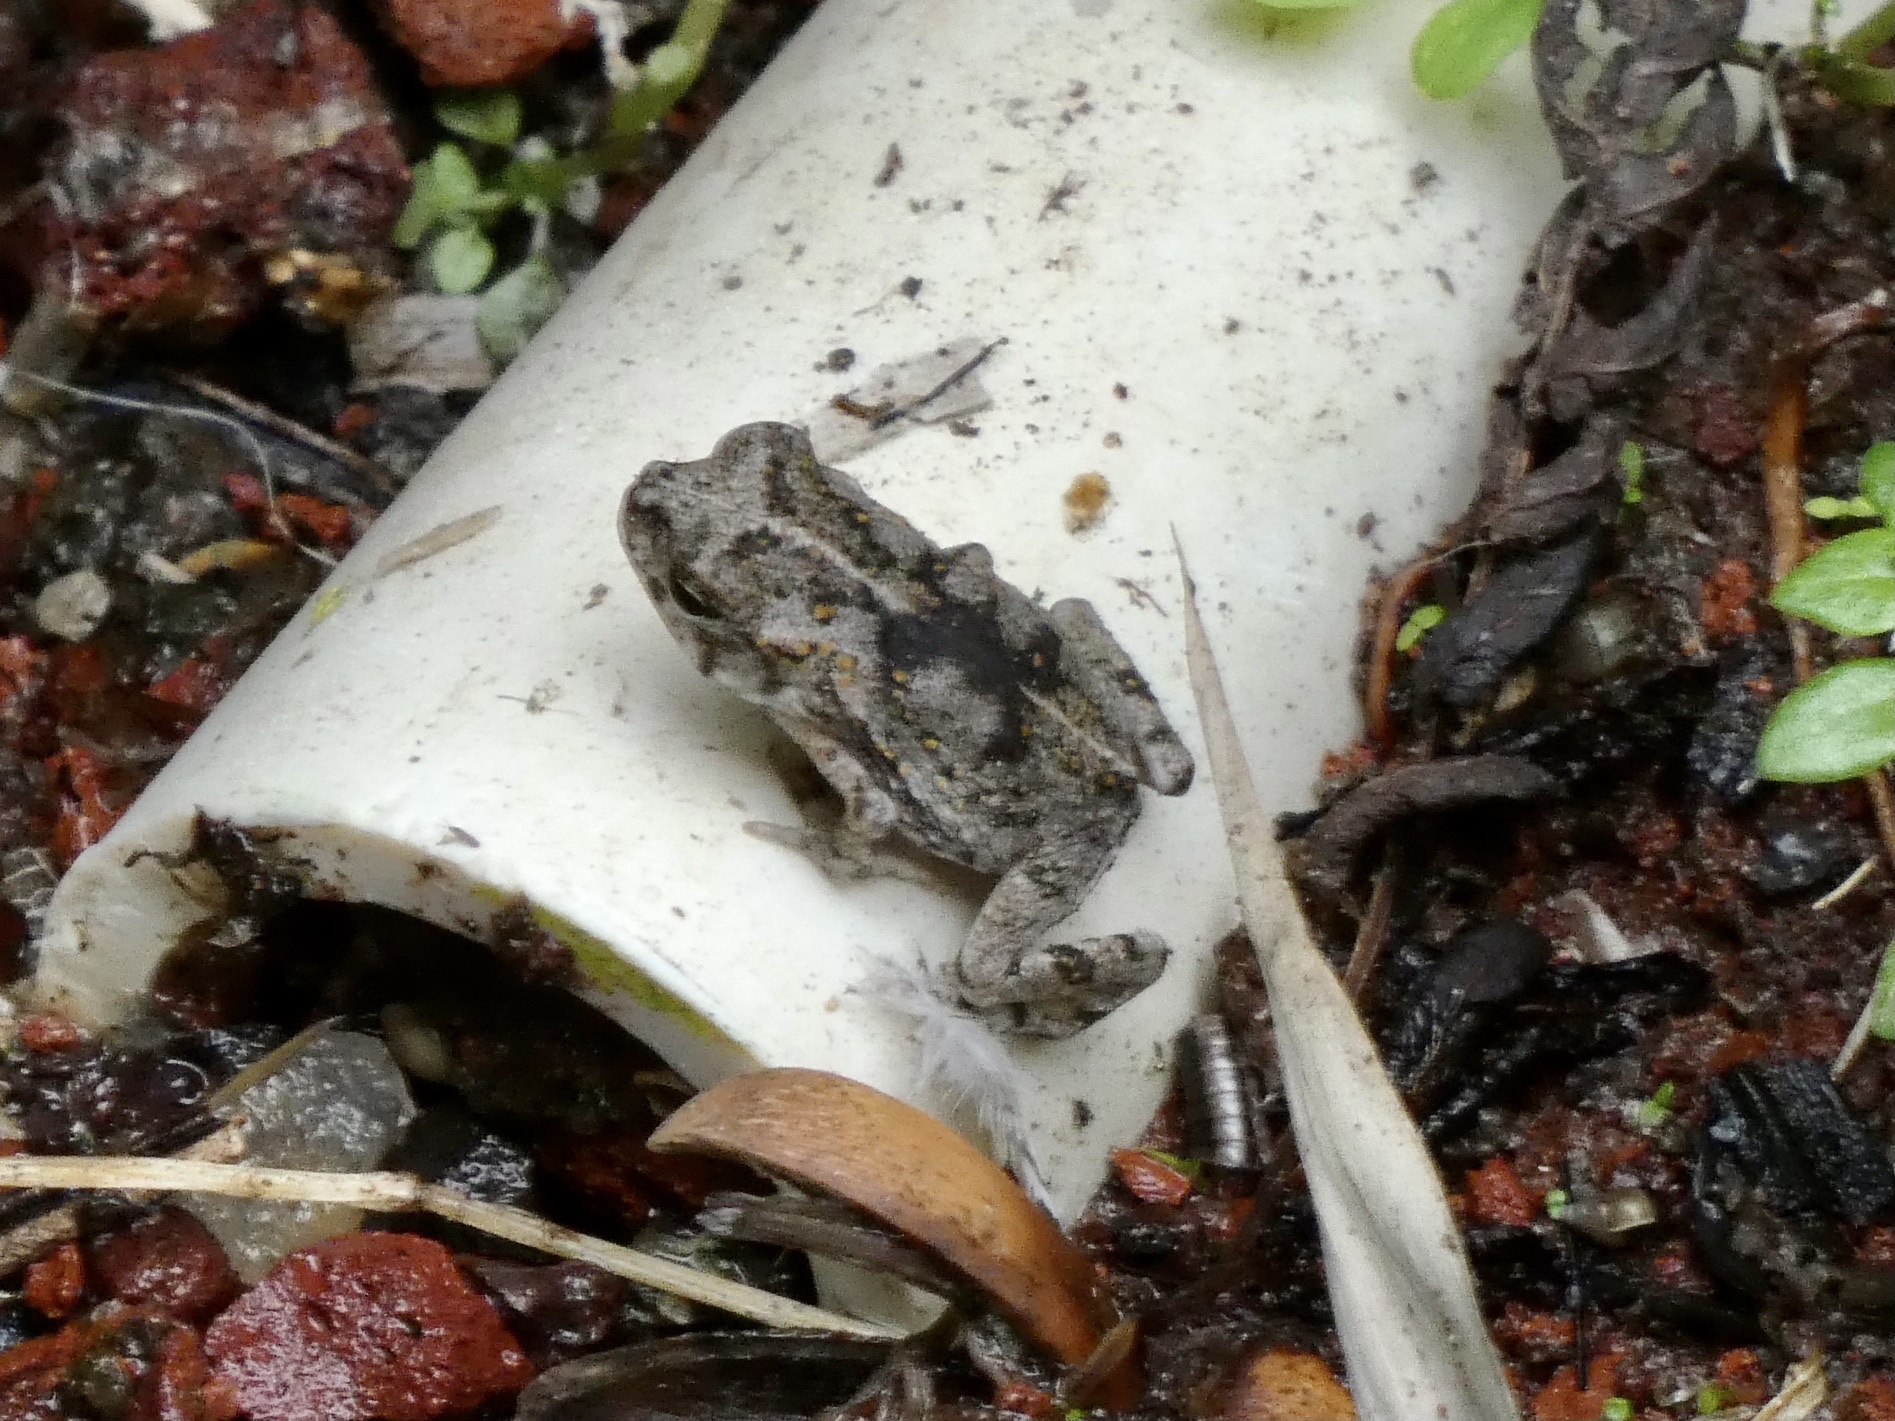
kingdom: Animalia
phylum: Chordata
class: Amphibia
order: Anura
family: Bufonidae
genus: Rhinella
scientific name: Rhinella marina
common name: Cane toad
